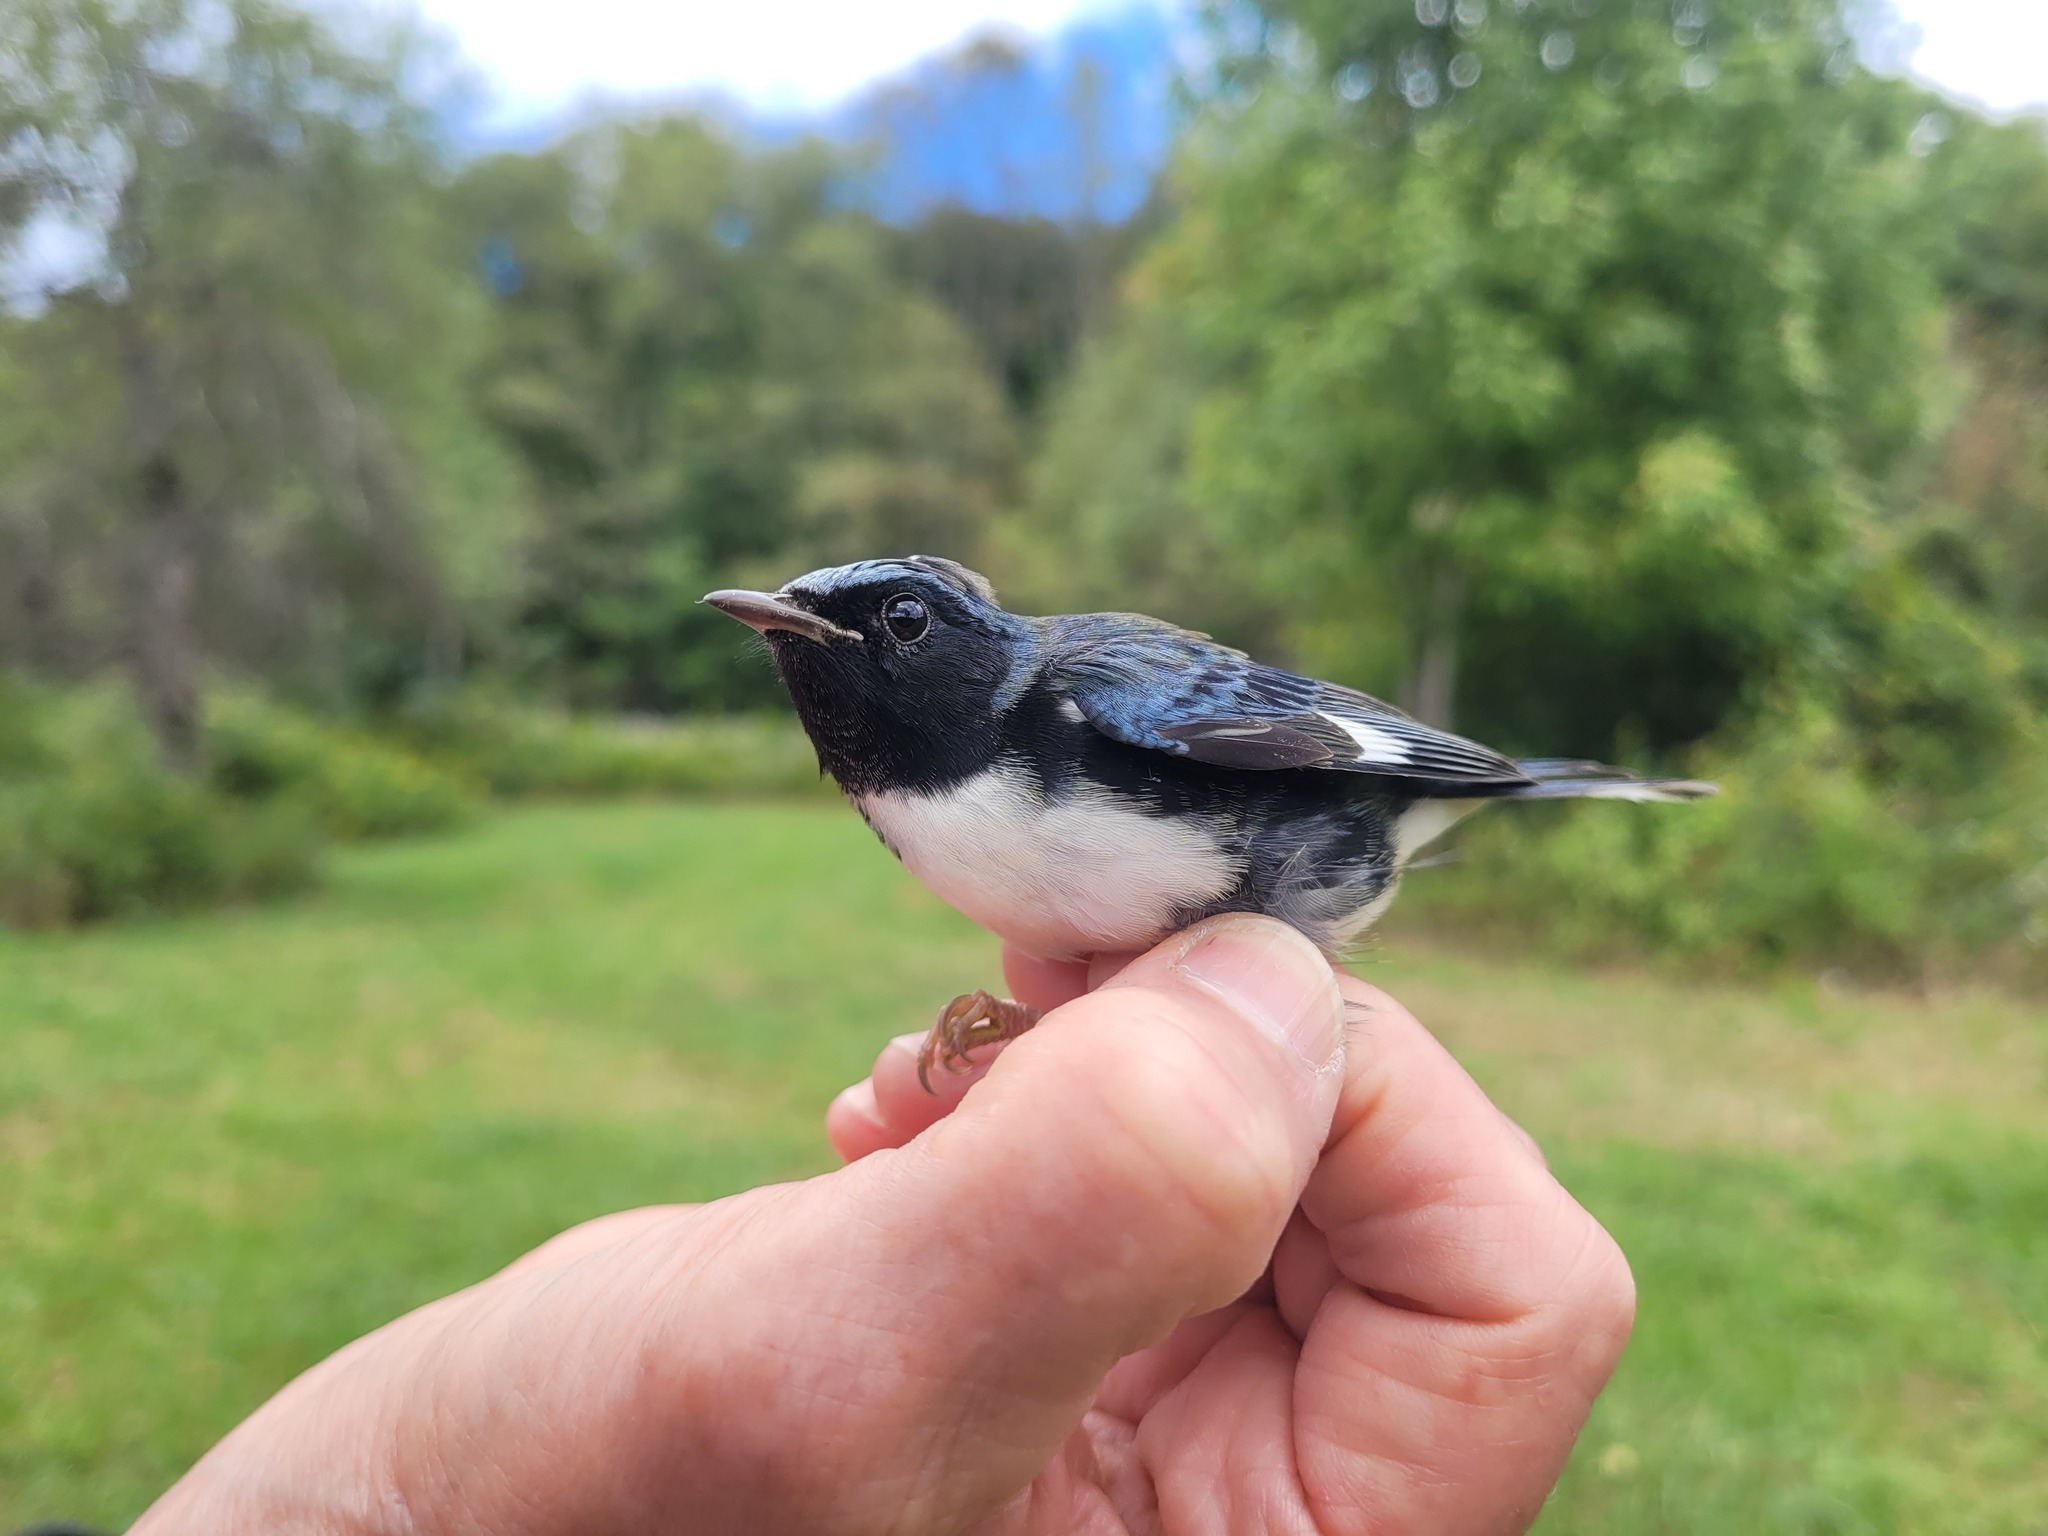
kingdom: Animalia
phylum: Chordata
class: Aves
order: Passeriformes
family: Parulidae
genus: Setophaga
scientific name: Setophaga caerulescens
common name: Black-throated blue warbler
